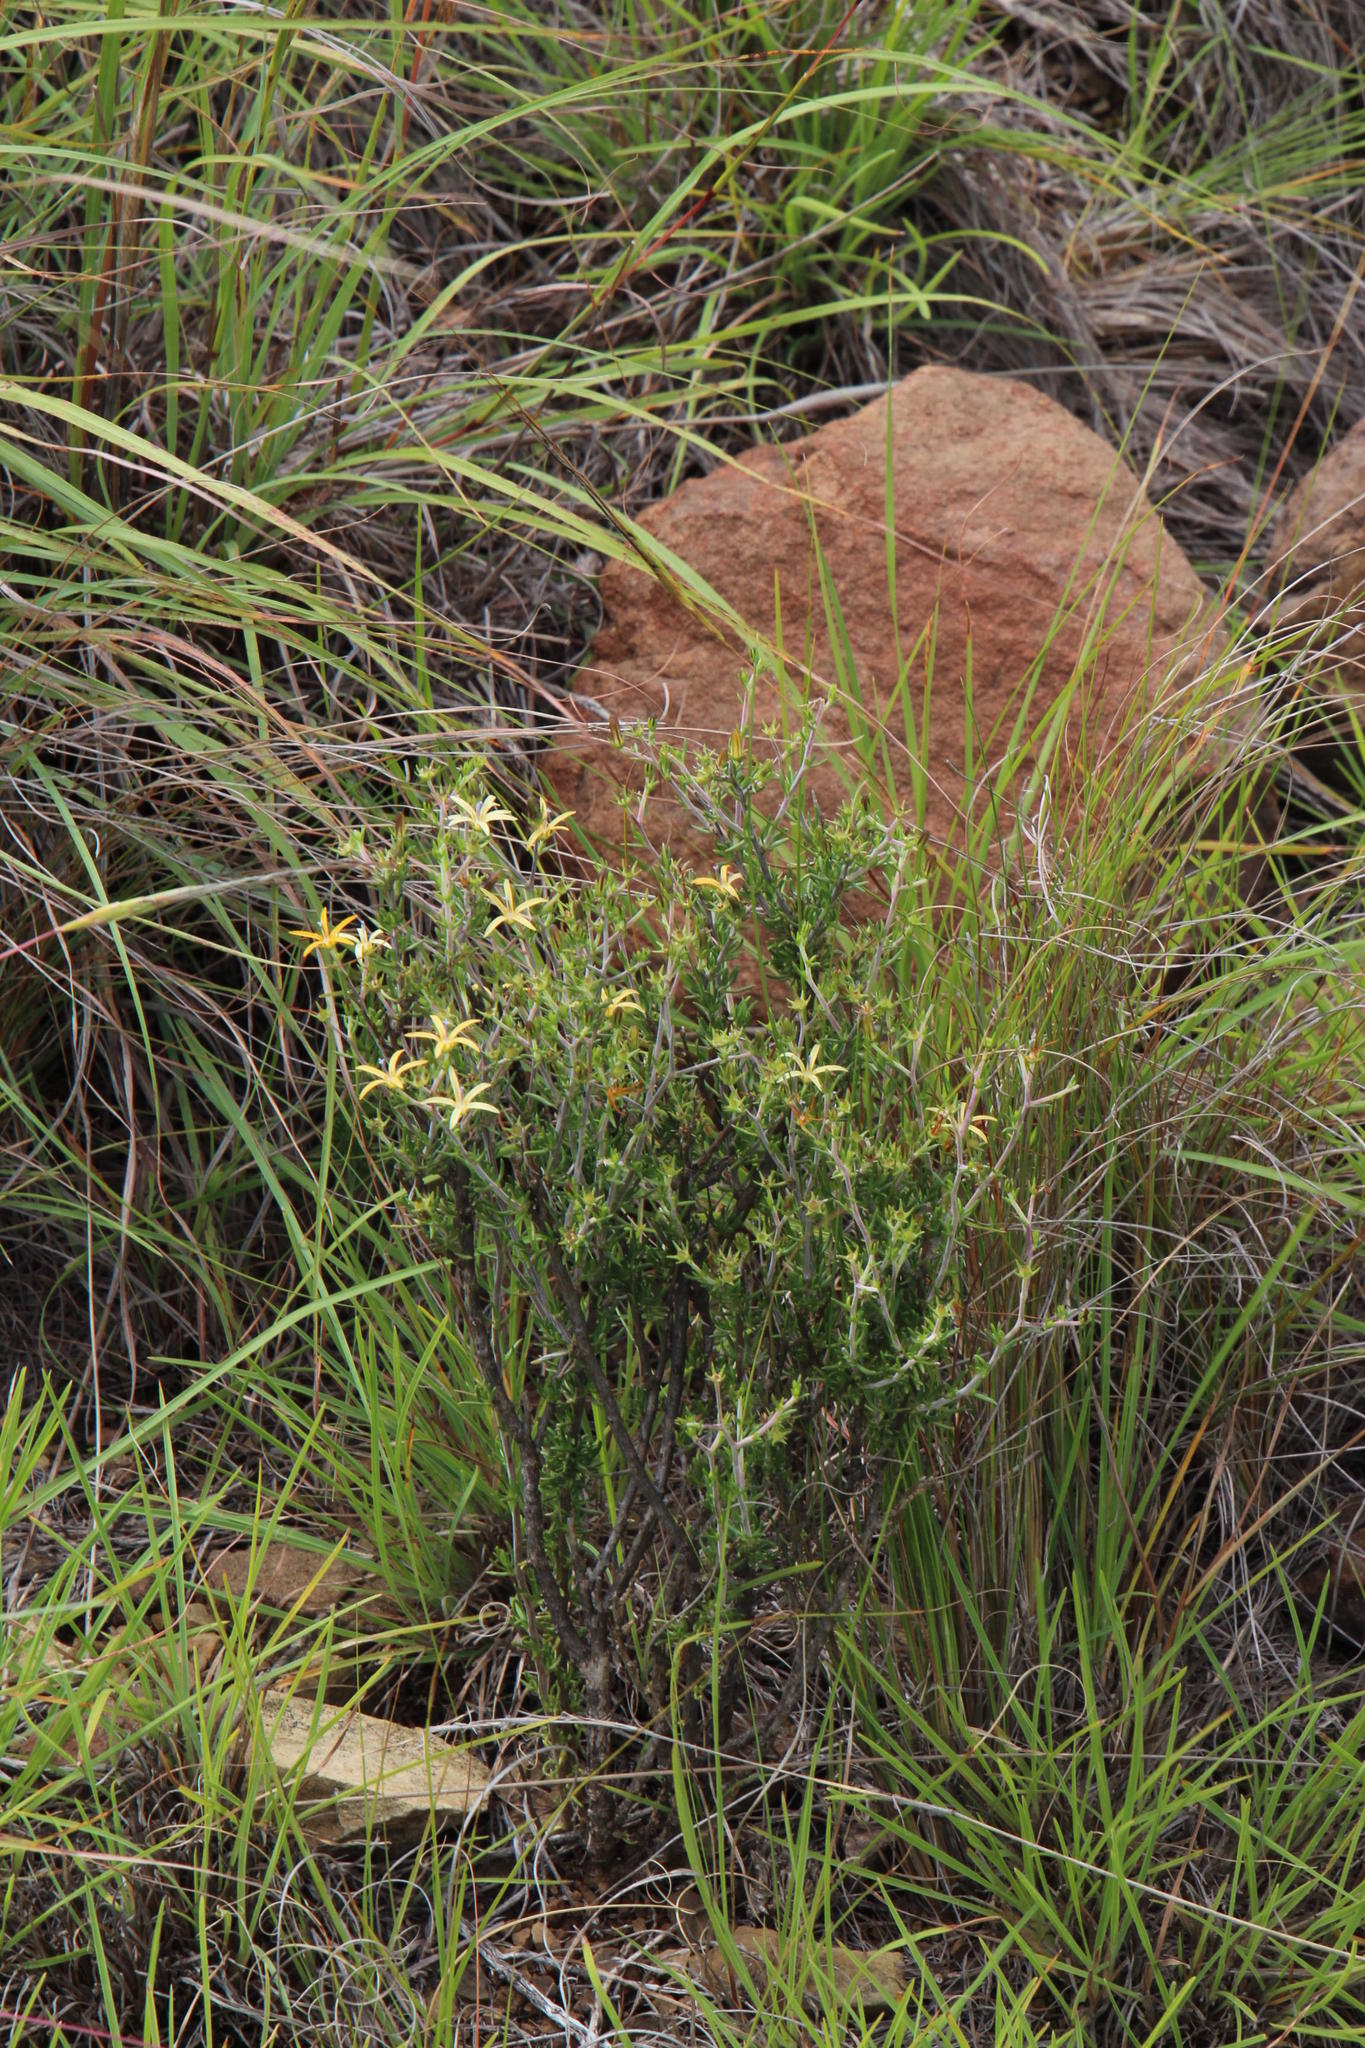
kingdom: Plantae
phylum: Tracheophyta
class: Magnoliopsida
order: Asterales
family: Campanulaceae
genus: Wahlenbergia
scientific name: Wahlenbergia albens
